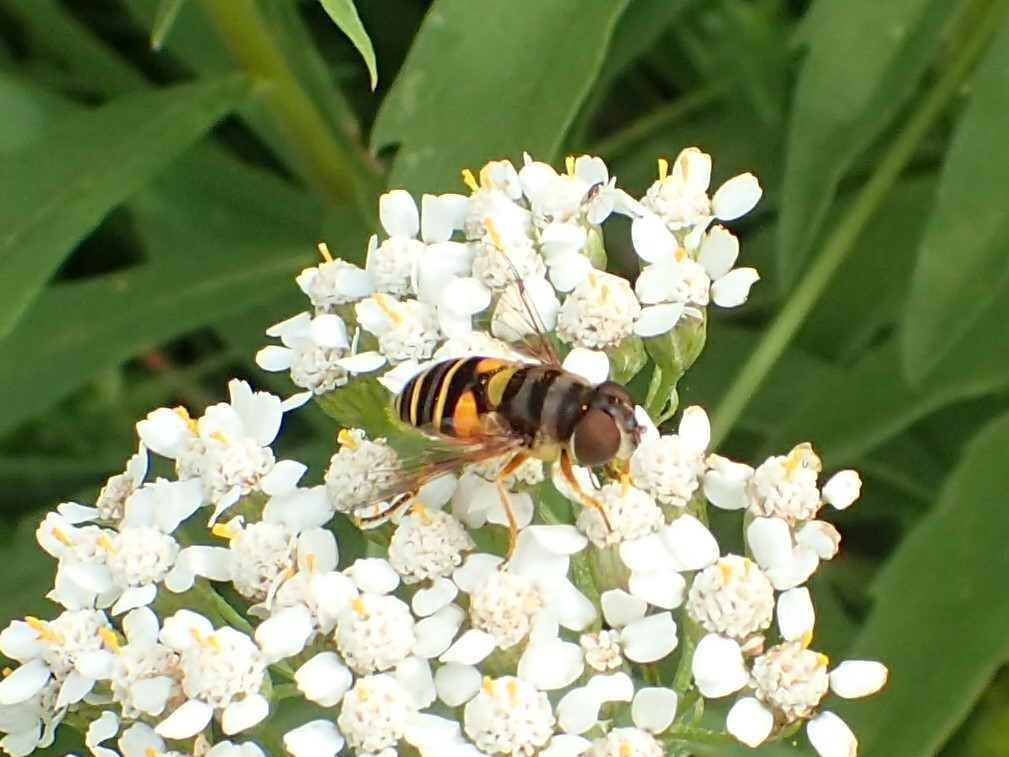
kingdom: Animalia
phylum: Arthropoda
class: Insecta
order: Diptera
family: Syrphidae
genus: Eristalis
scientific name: Eristalis transversa
